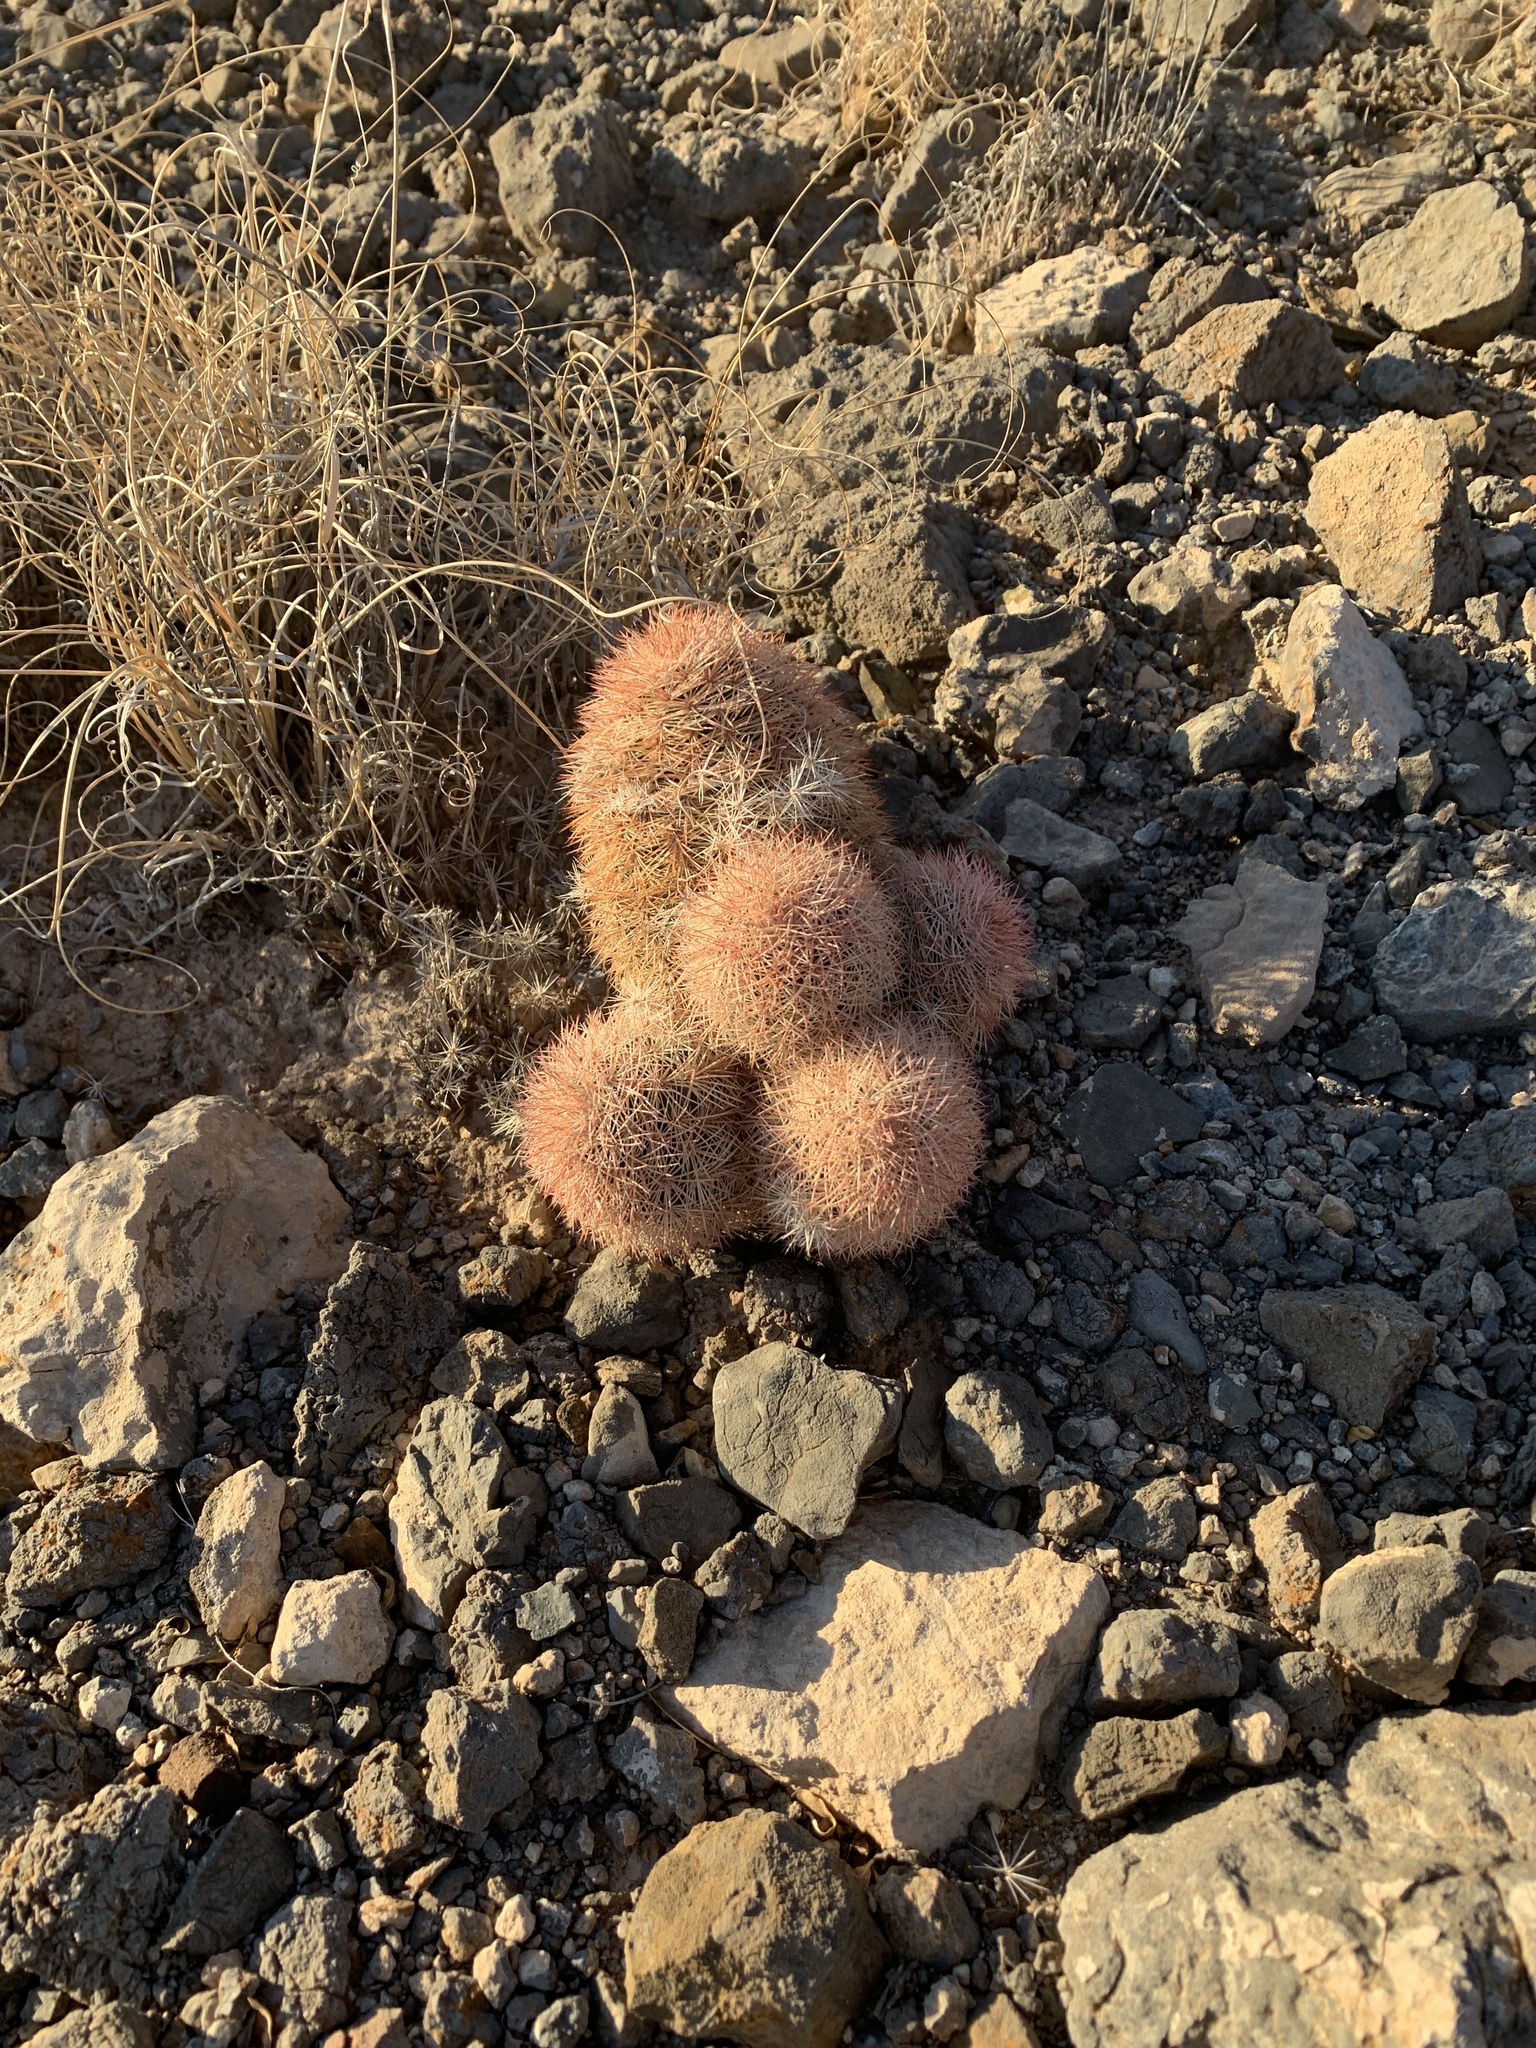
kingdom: Plantae
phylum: Tracheophyta
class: Magnoliopsida
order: Caryophyllales
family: Cactaceae
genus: Echinocereus
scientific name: Echinocereus dasyacanthus
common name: Spiny hedgehog cactus
